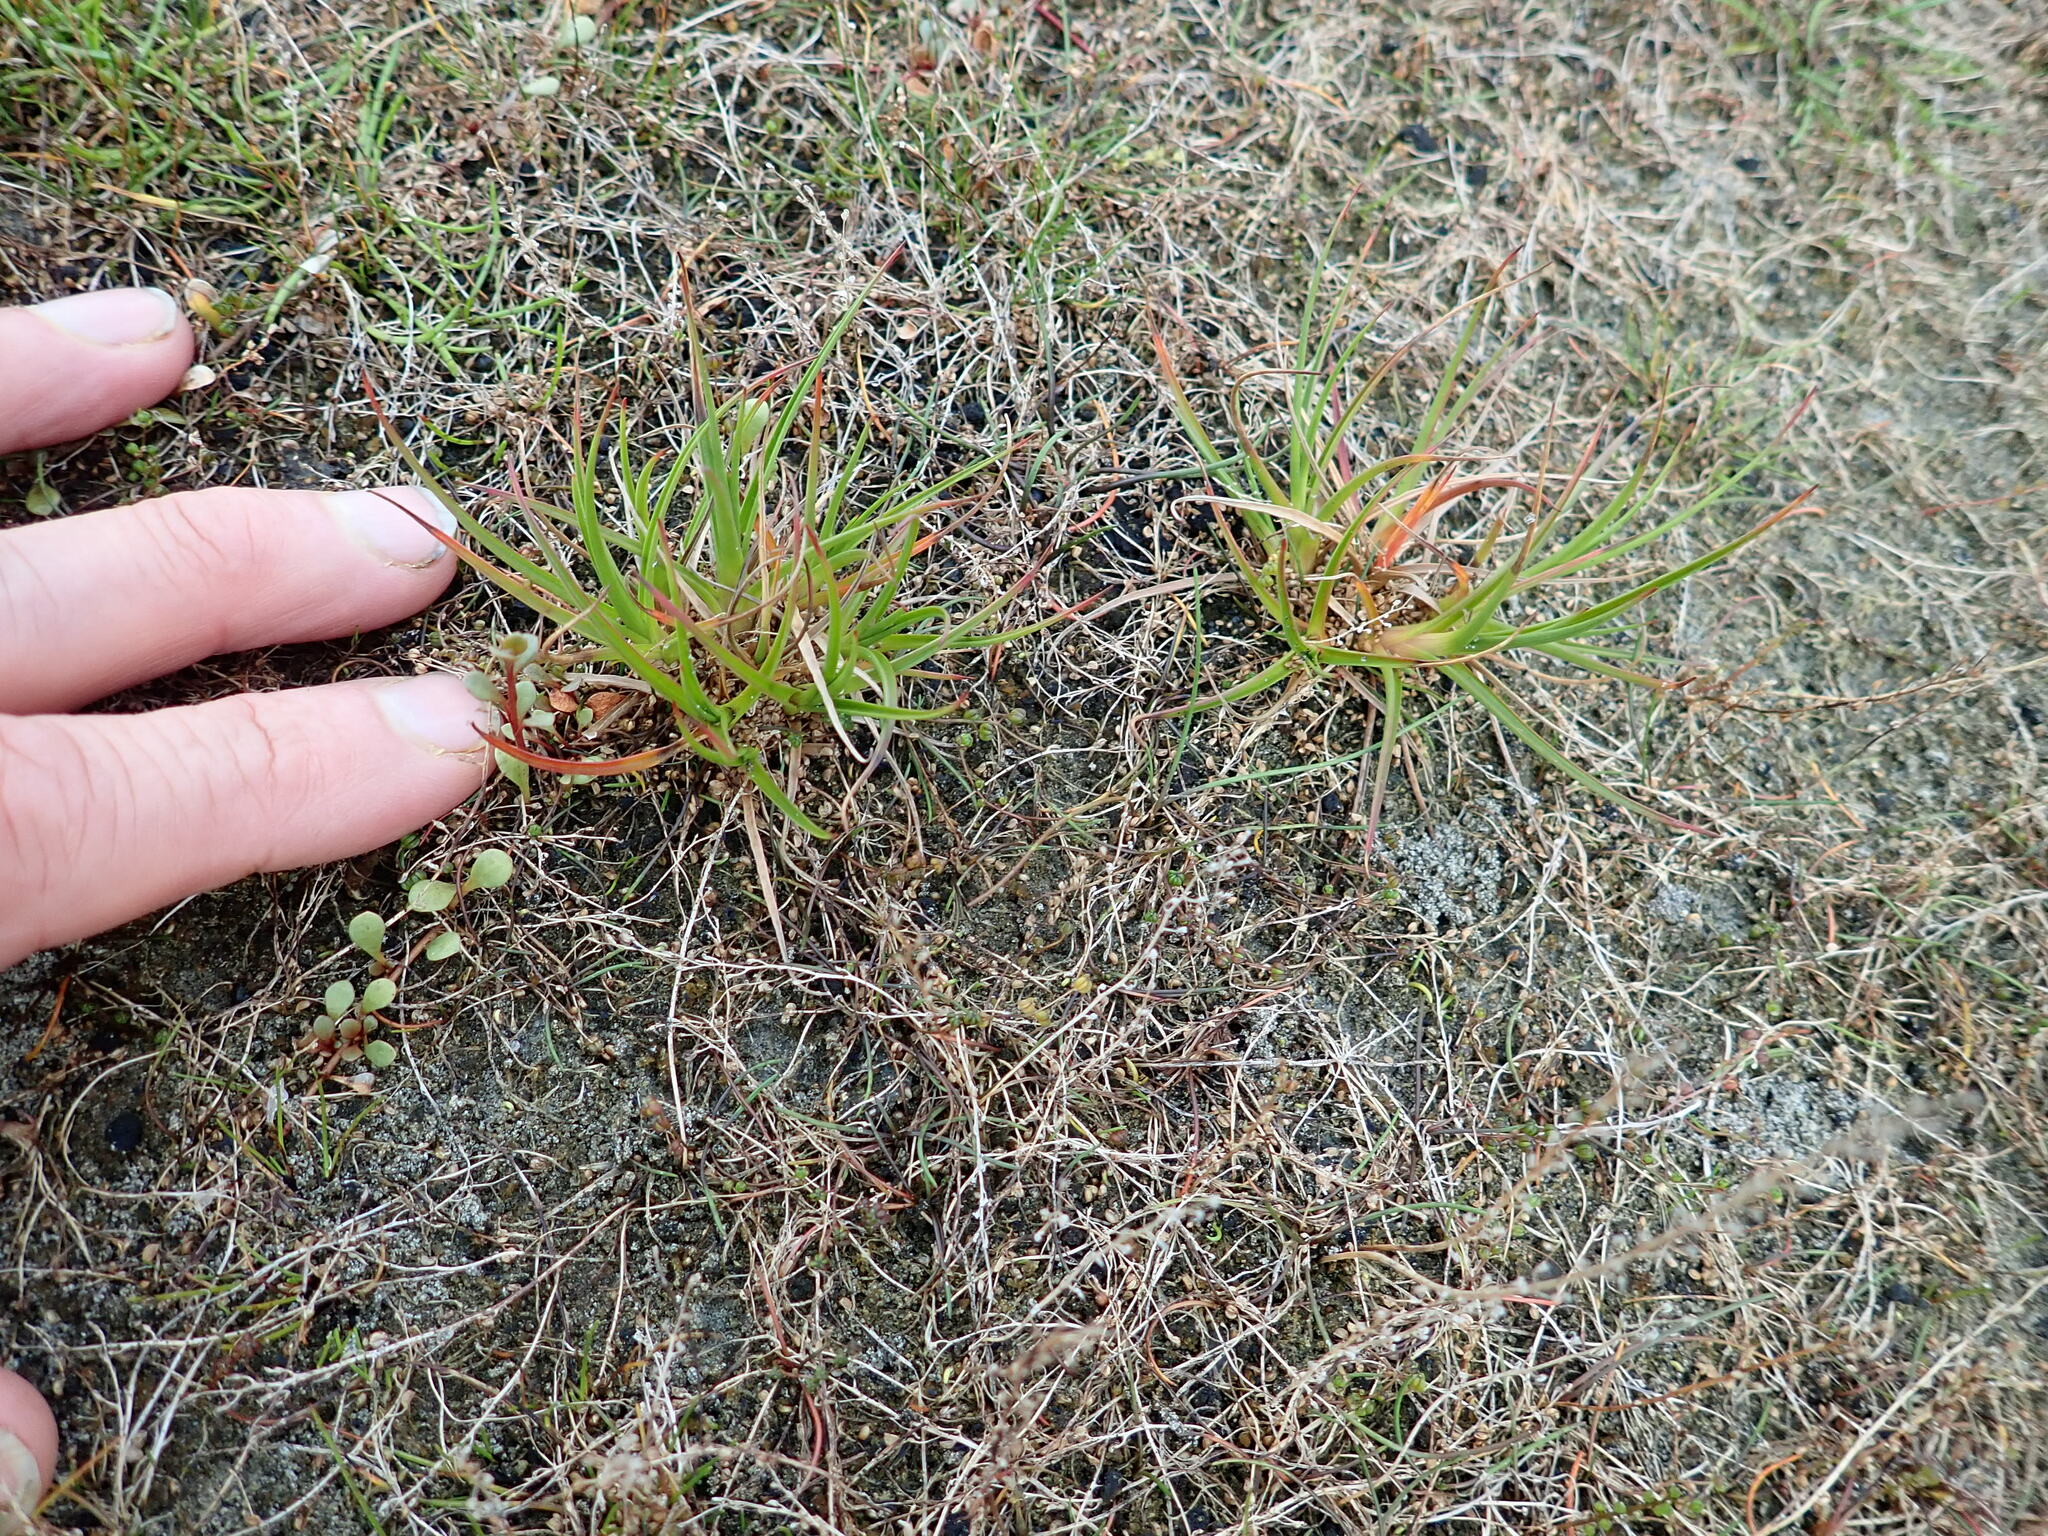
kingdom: Plantae
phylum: Tracheophyta
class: Liliopsida
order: Poales
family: Juncaceae
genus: Juncus
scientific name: Juncus caespiticius
